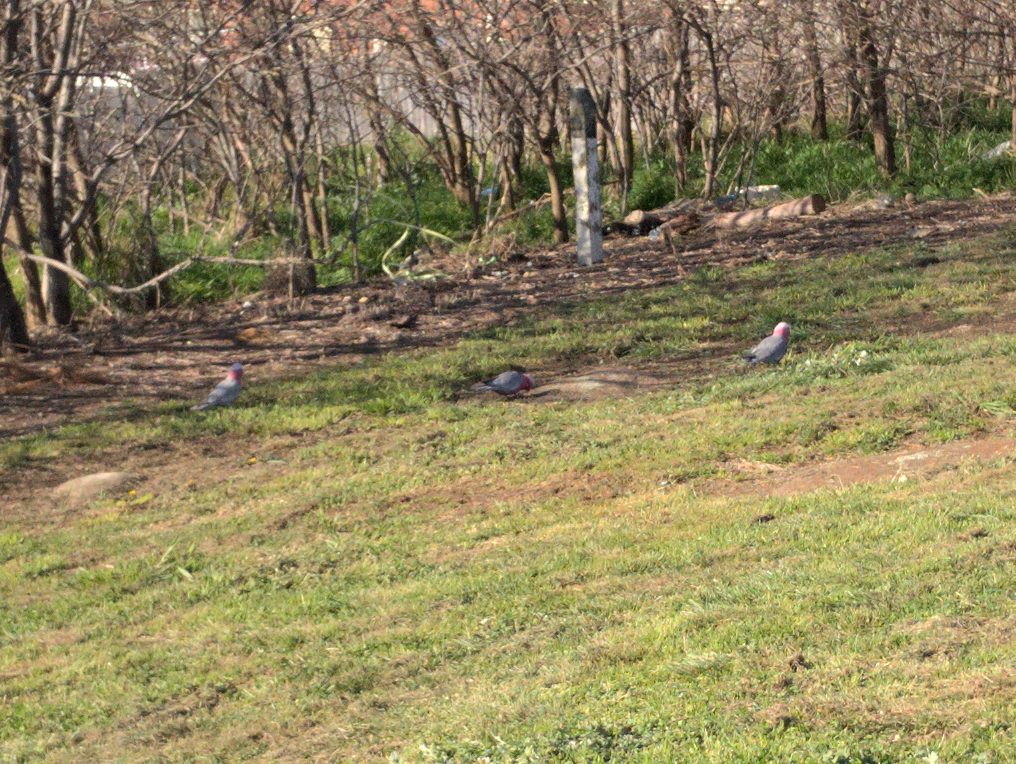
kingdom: Animalia
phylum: Chordata
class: Aves
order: Psittaciformes
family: Psittacidae
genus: Eolophus
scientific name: Eolophus roseicapilla
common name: Galah
